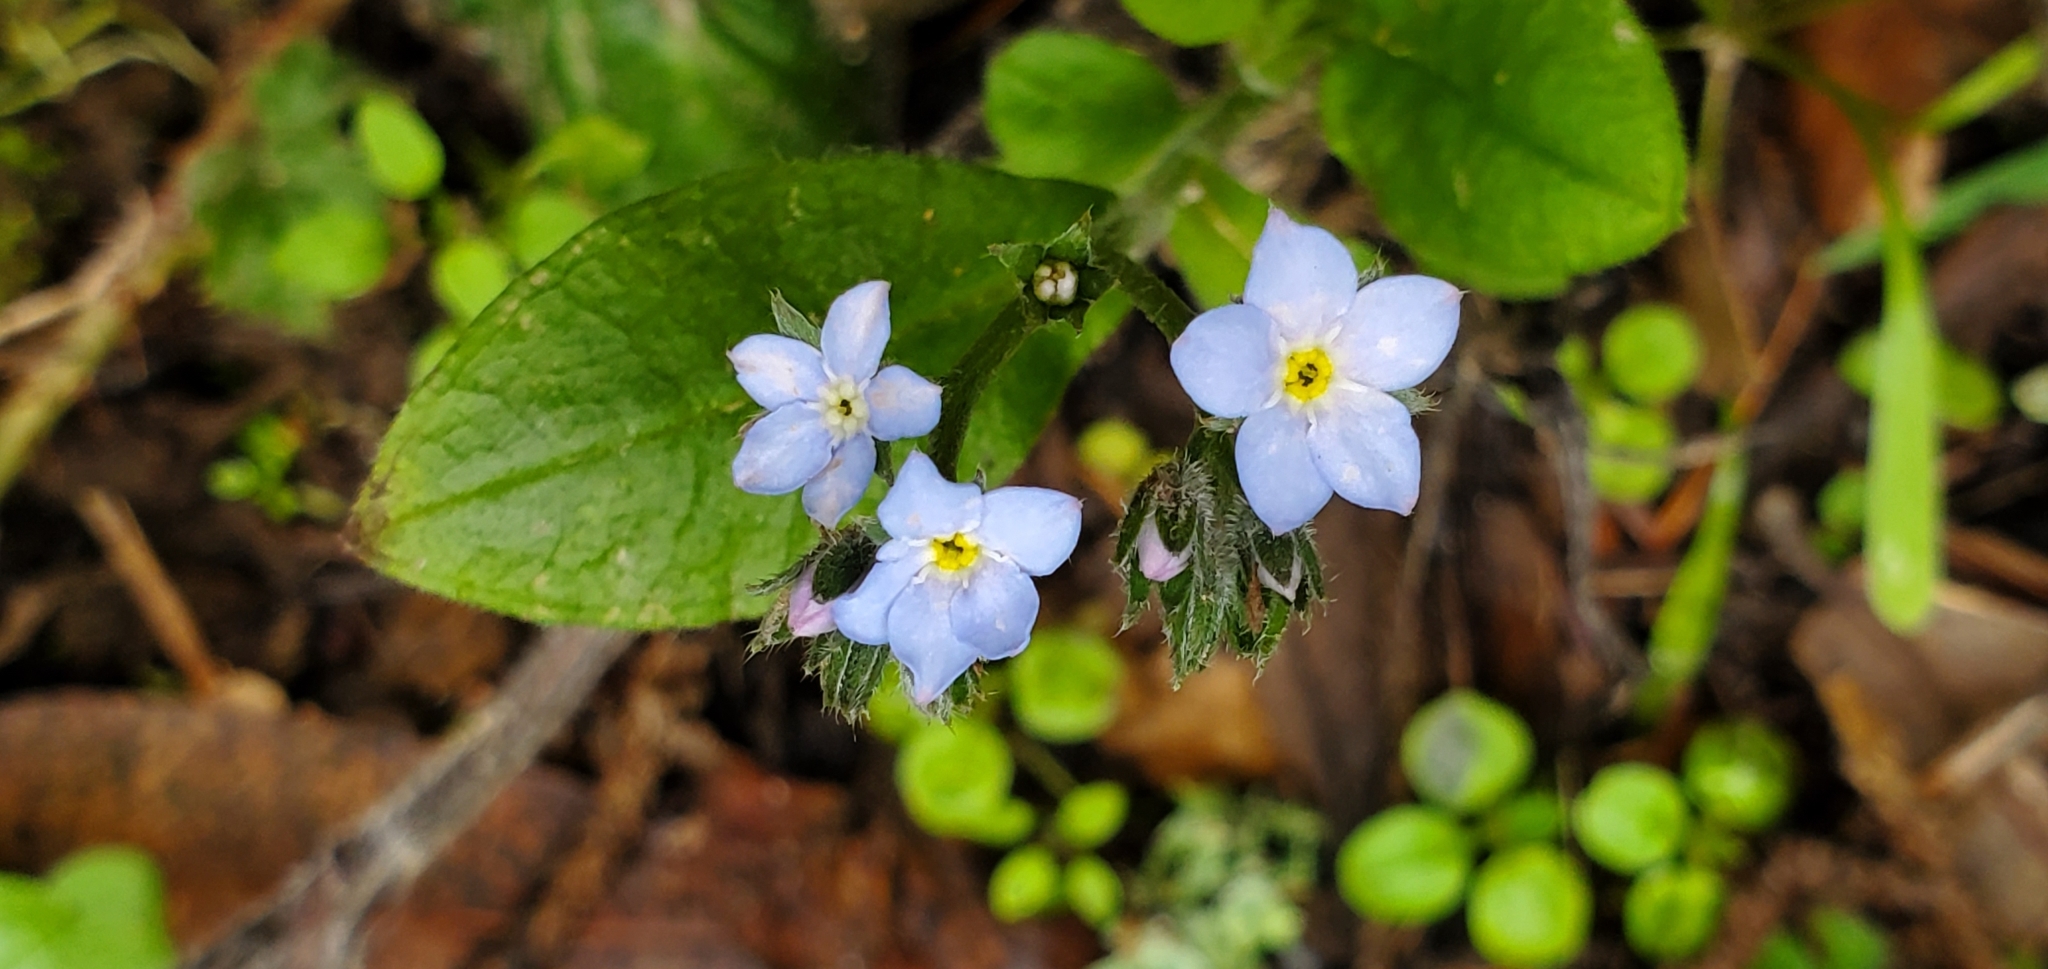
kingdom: Plantae
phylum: Tracheophyta
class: Magnoliopsida
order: Boraginales
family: Boraginaceae
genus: Myosotis
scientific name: Myosotis latifolia
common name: Broadleaf forget-me-not
